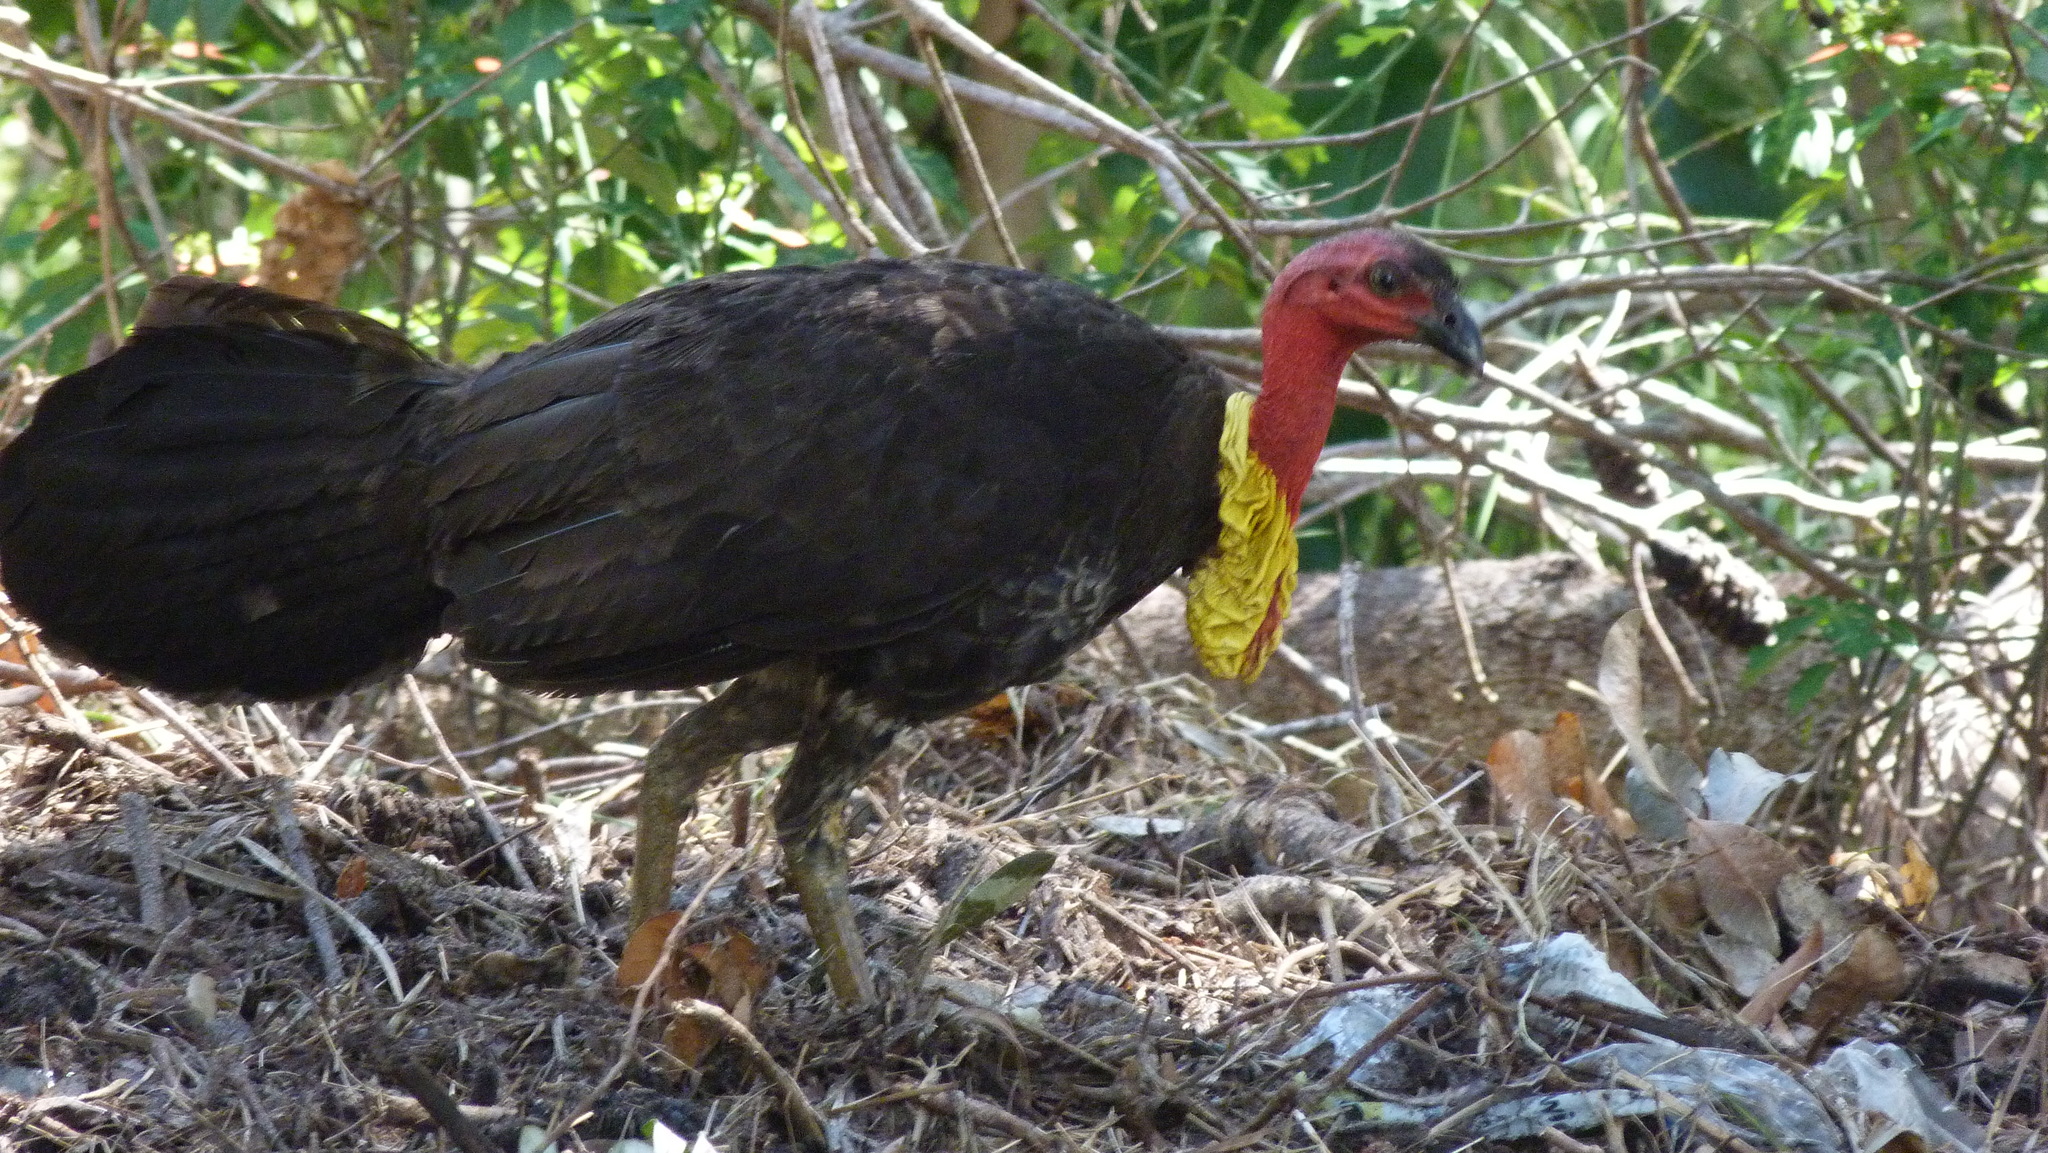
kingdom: Animalia
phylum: Chordata
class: Aves
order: Galliformes
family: Megapodiidae
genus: Alectura
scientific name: Alectura lathami
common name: Australian brushturkey
